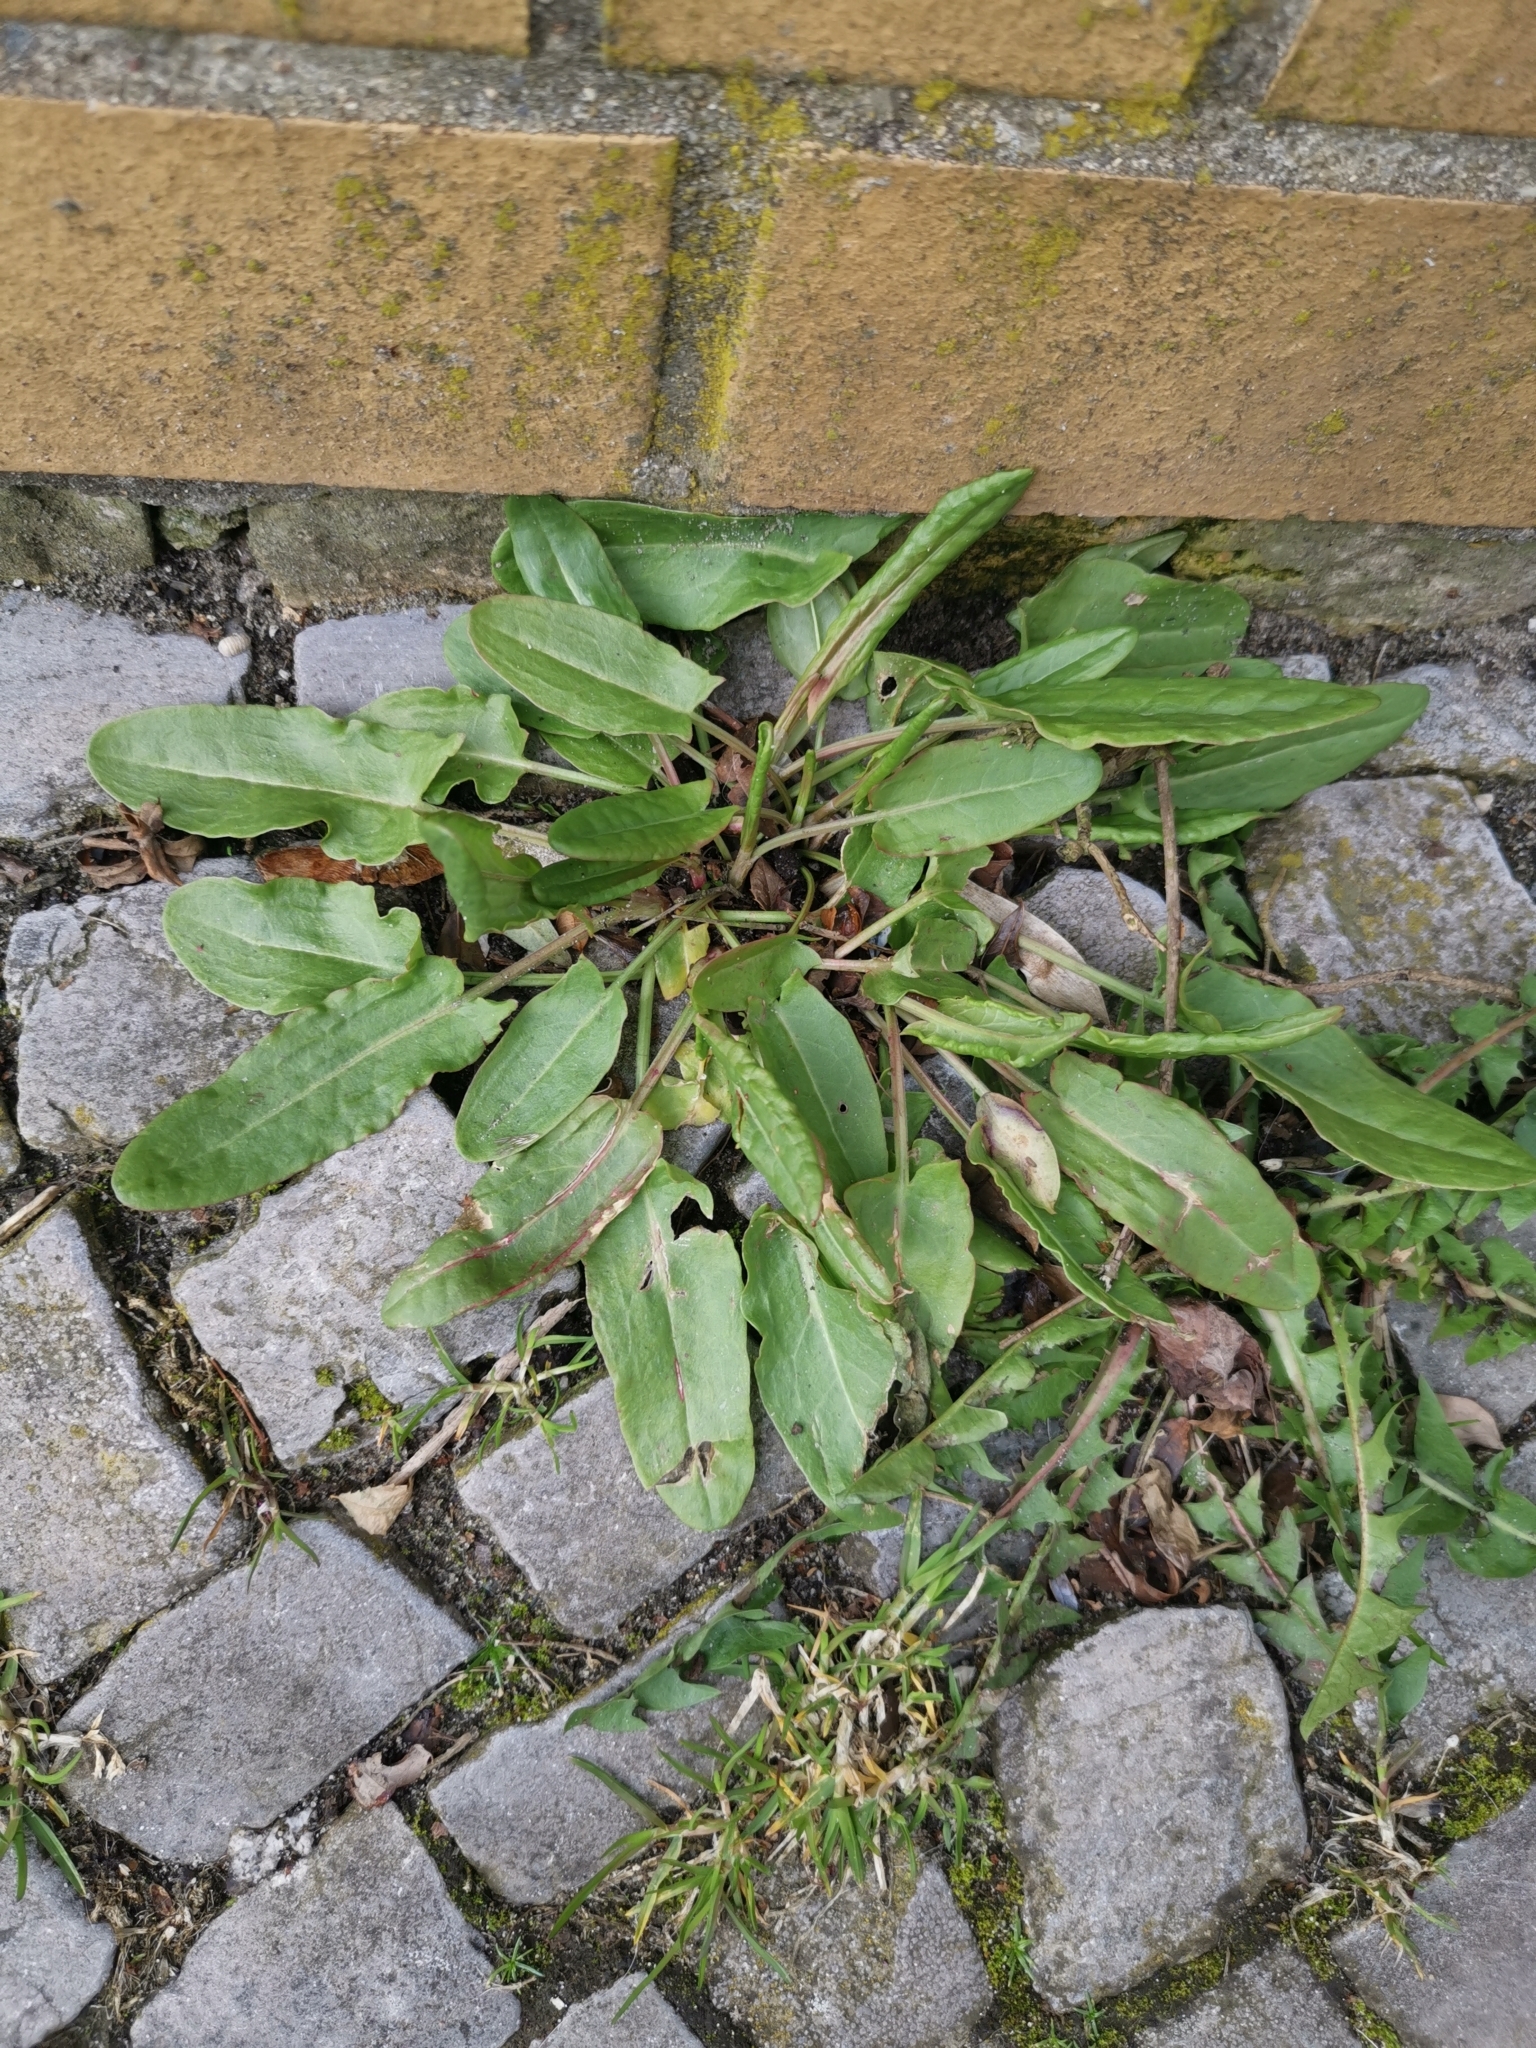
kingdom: Plantae
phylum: Tracheophyta
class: Magnoliopsida
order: Caryophyllales
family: Polygonaceae
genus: Rumex
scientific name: Rumex acetosa
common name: Garden sorrel
